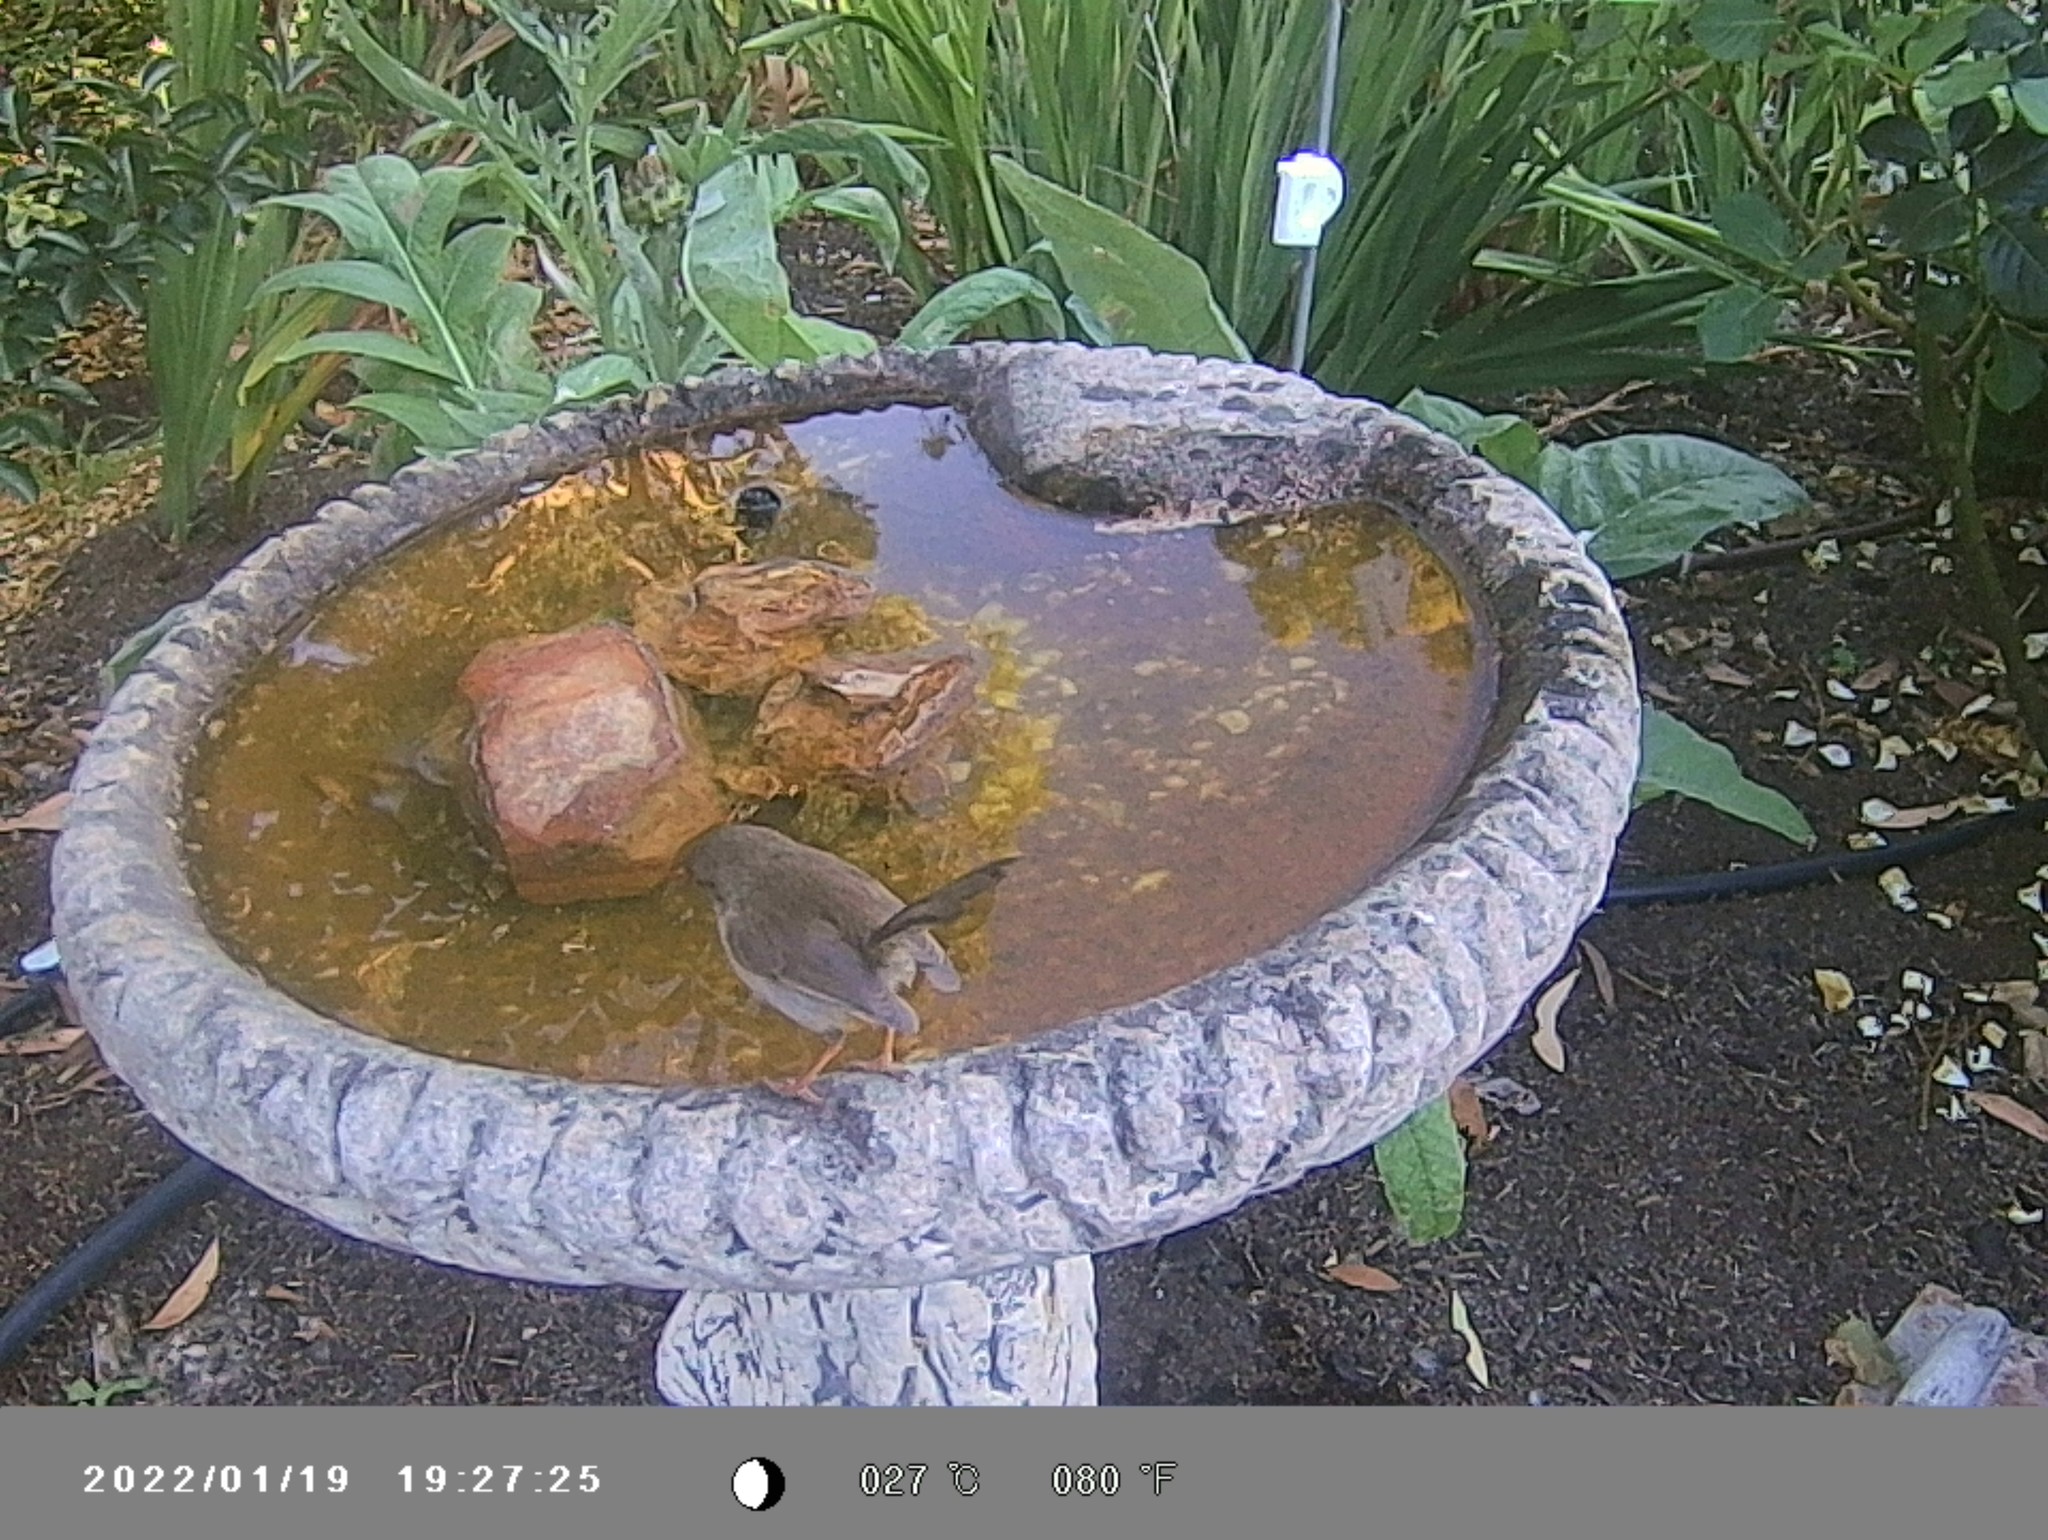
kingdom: Animalia
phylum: Chordata
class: Aves
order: Passeriformes
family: Maluridae
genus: Malurus
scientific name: Malurus cyaneus
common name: Superb fairywren
